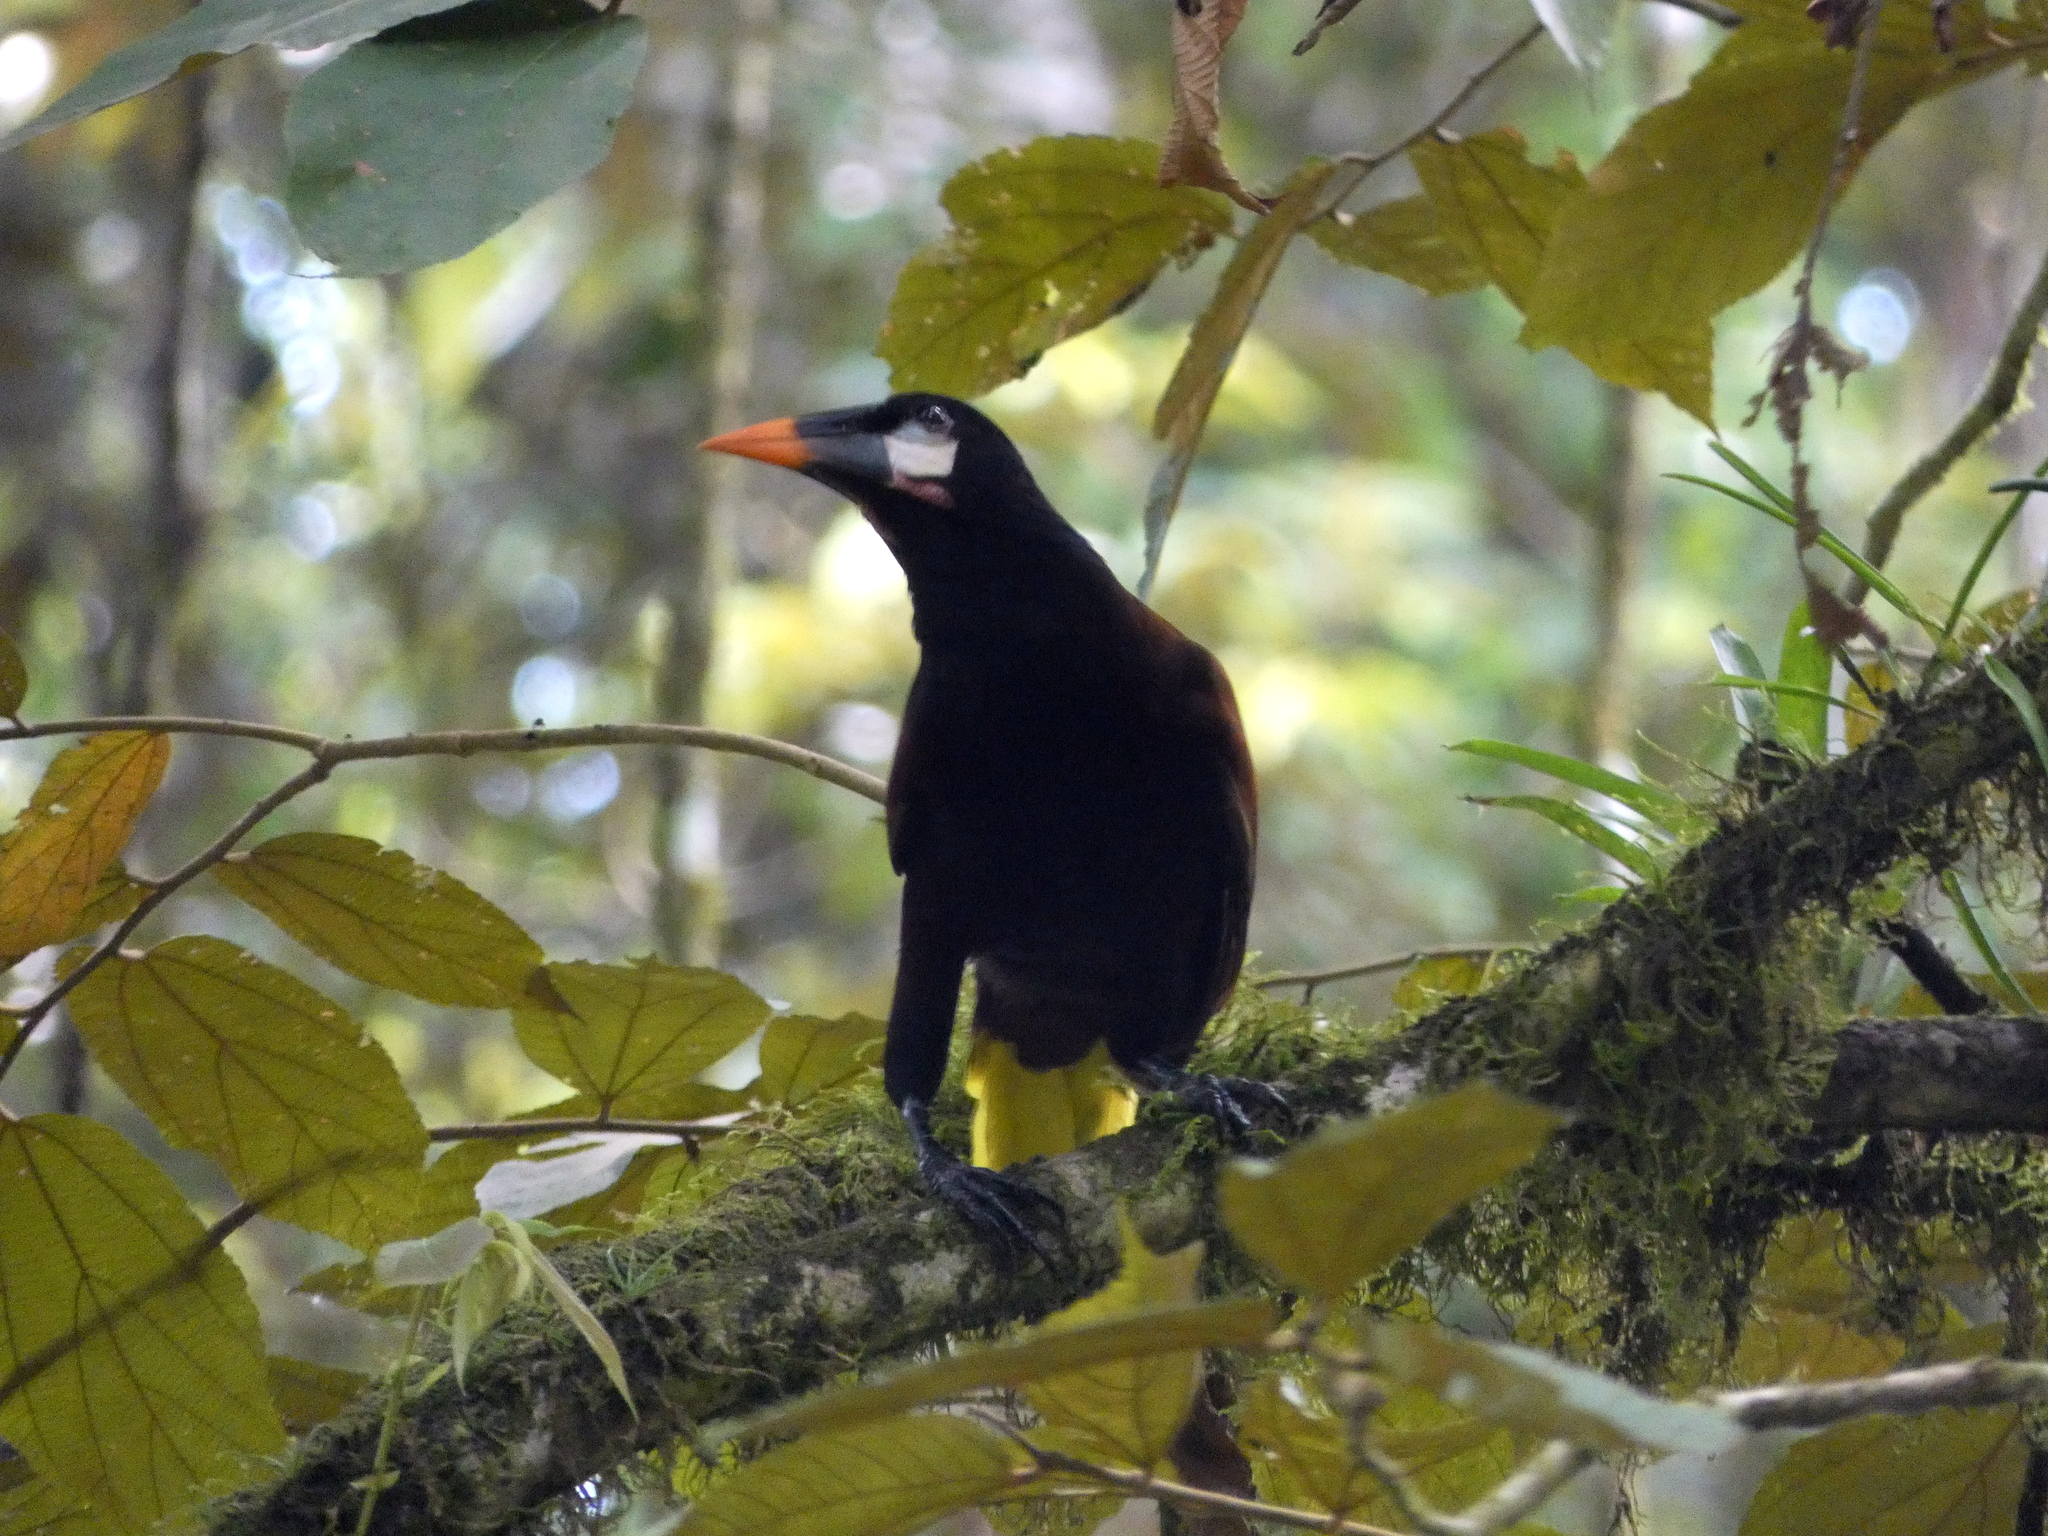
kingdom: Animalia
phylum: Chordata
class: Aves
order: Passeriformes
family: Icteridae
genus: Psarocolius
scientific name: Psarocolius montezuma
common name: Montezuma oropendola
